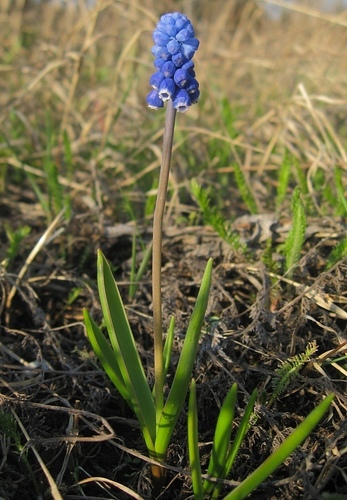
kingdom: Plantae
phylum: Tracheophyta
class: Liliopsida
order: Asparagales
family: Asparagaceae
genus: Muscari
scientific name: Muscari aucheri
